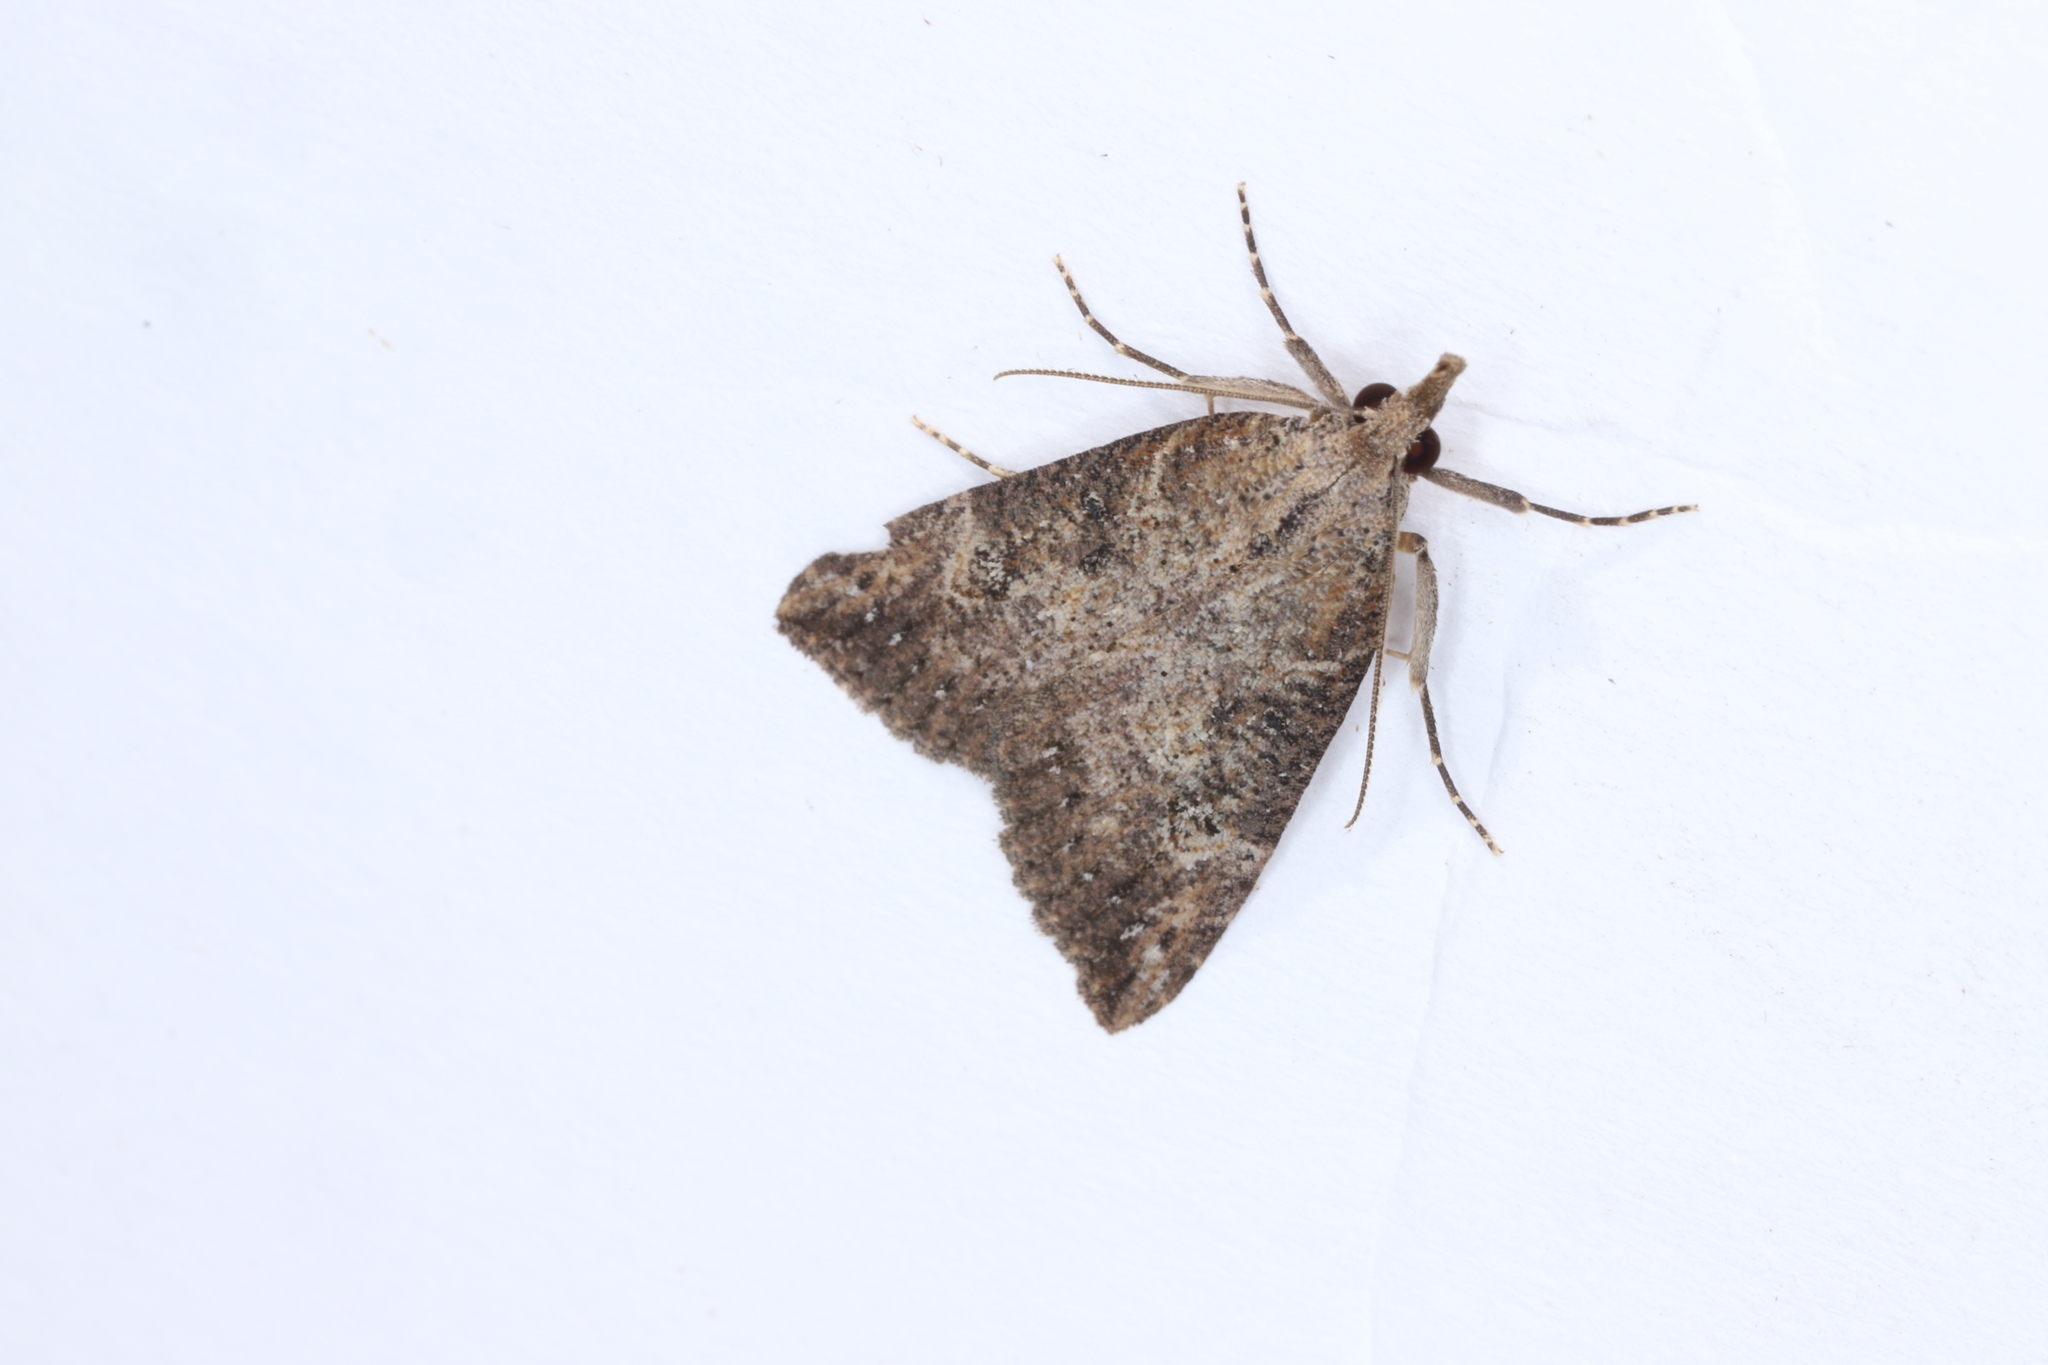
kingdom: Animalia
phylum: Arthropoda
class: Insecta
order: Lepidoptera
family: Erebidae
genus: Hypena
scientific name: Hypena humuli
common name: Hop vine snout
